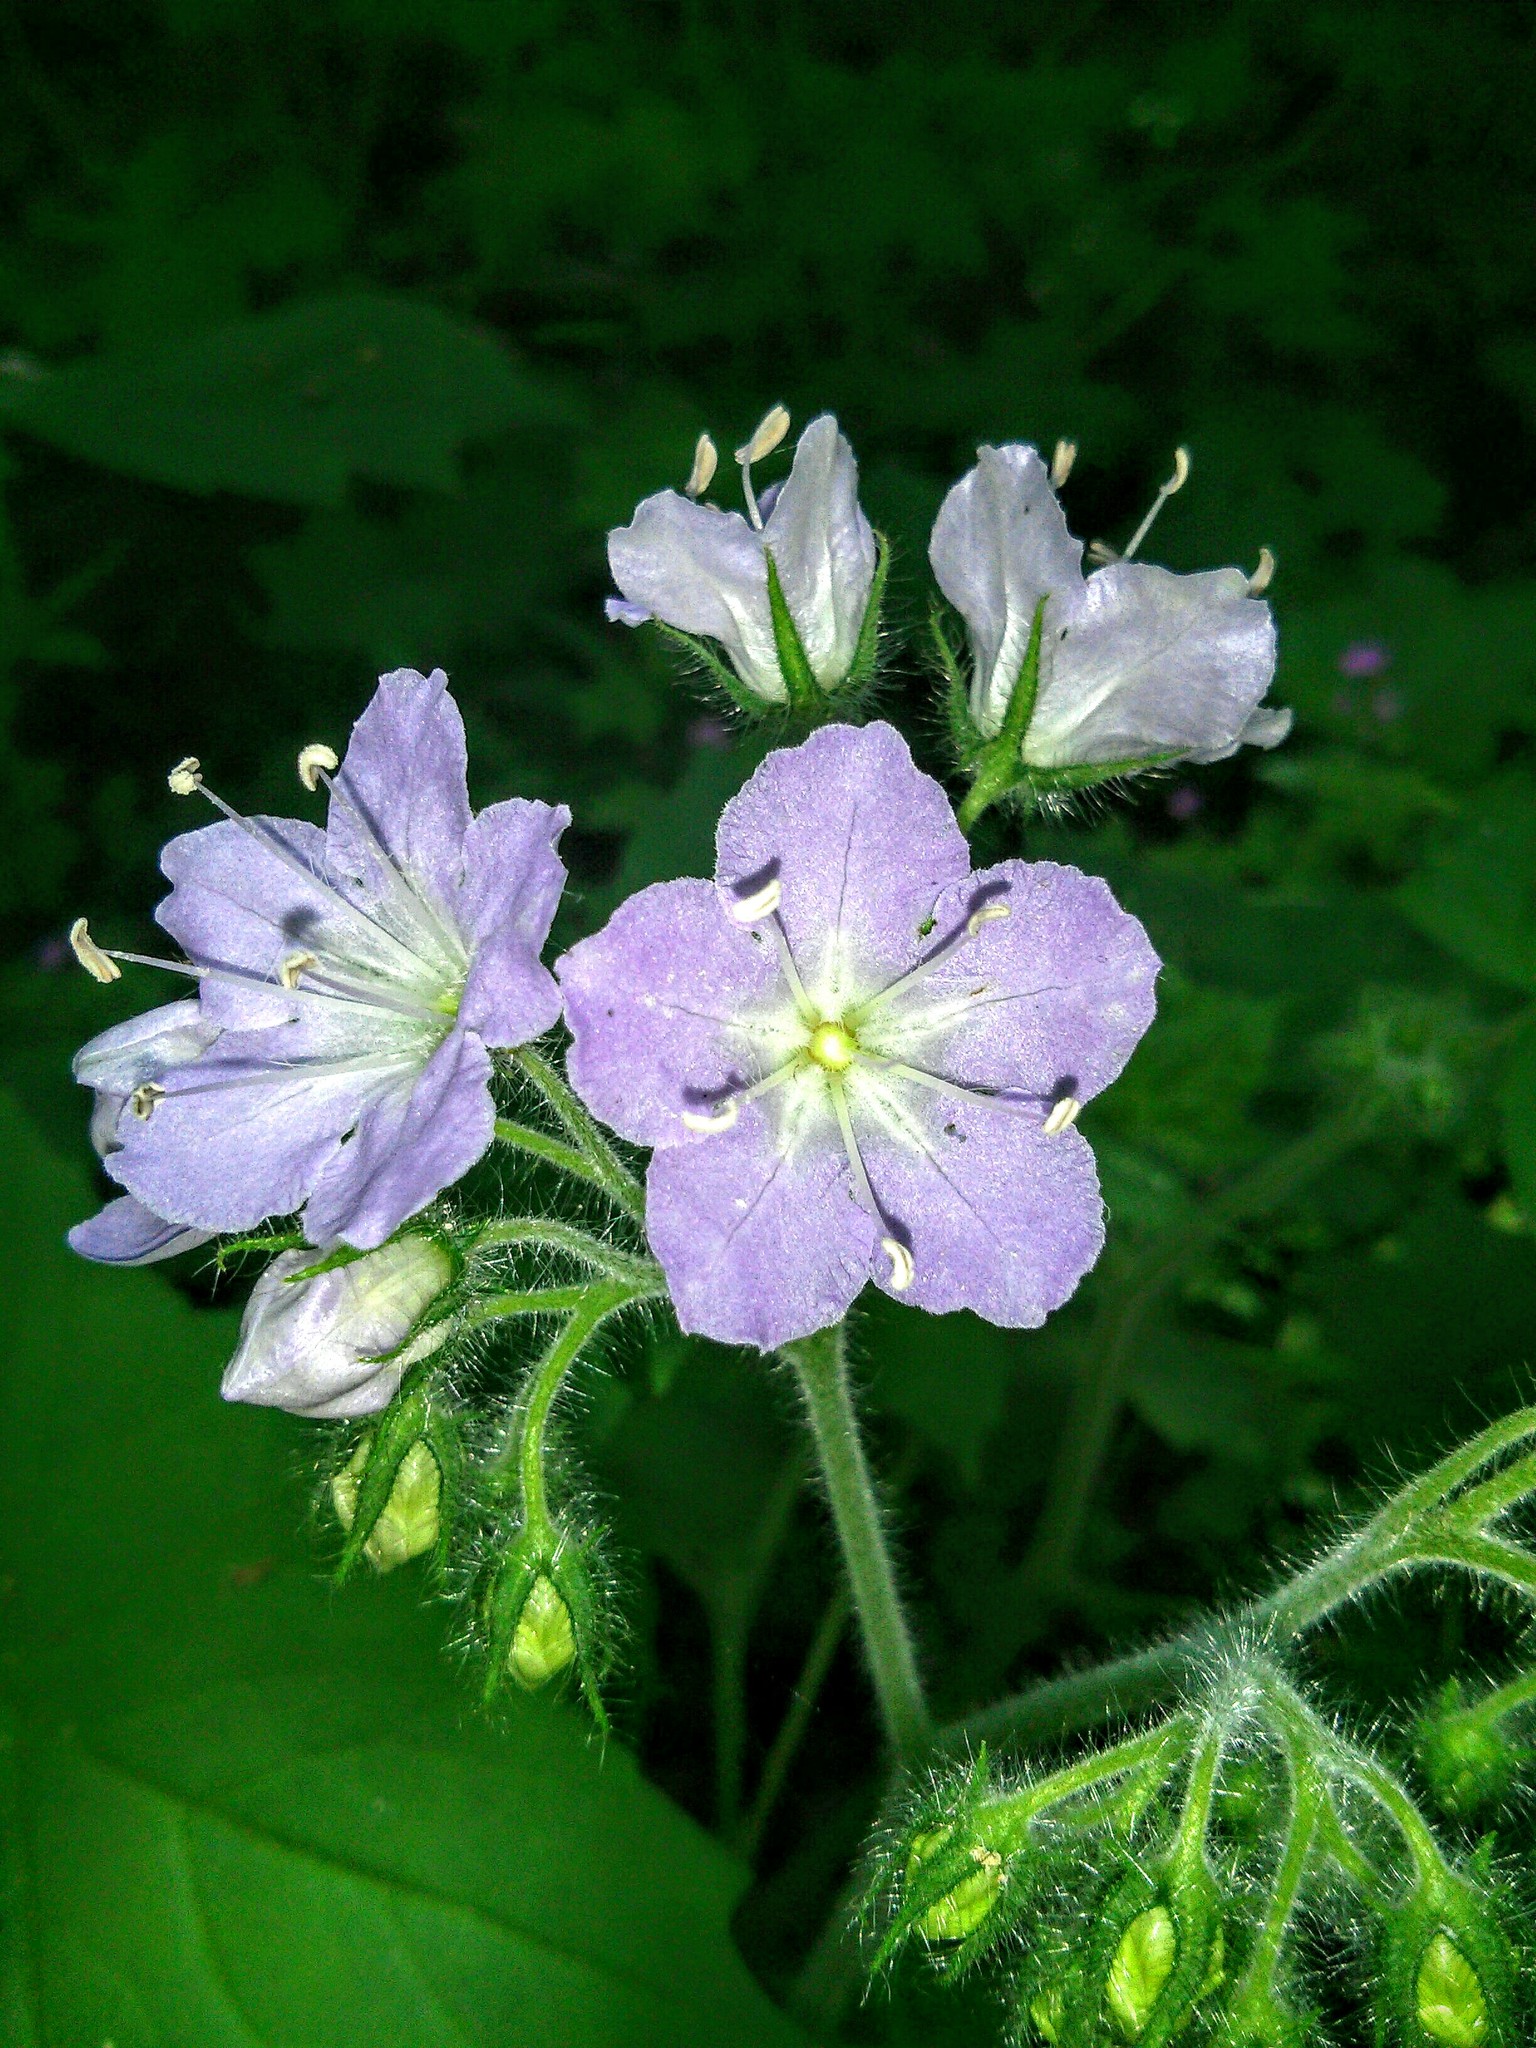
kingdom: Plantae
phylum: Tracheophyta
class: Magnoliopsida
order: Boraginales
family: Hydrophyllaceae
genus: Hydrophyllum
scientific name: Hydrophyllum appendiculatum
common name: Appendaged waterleaf
